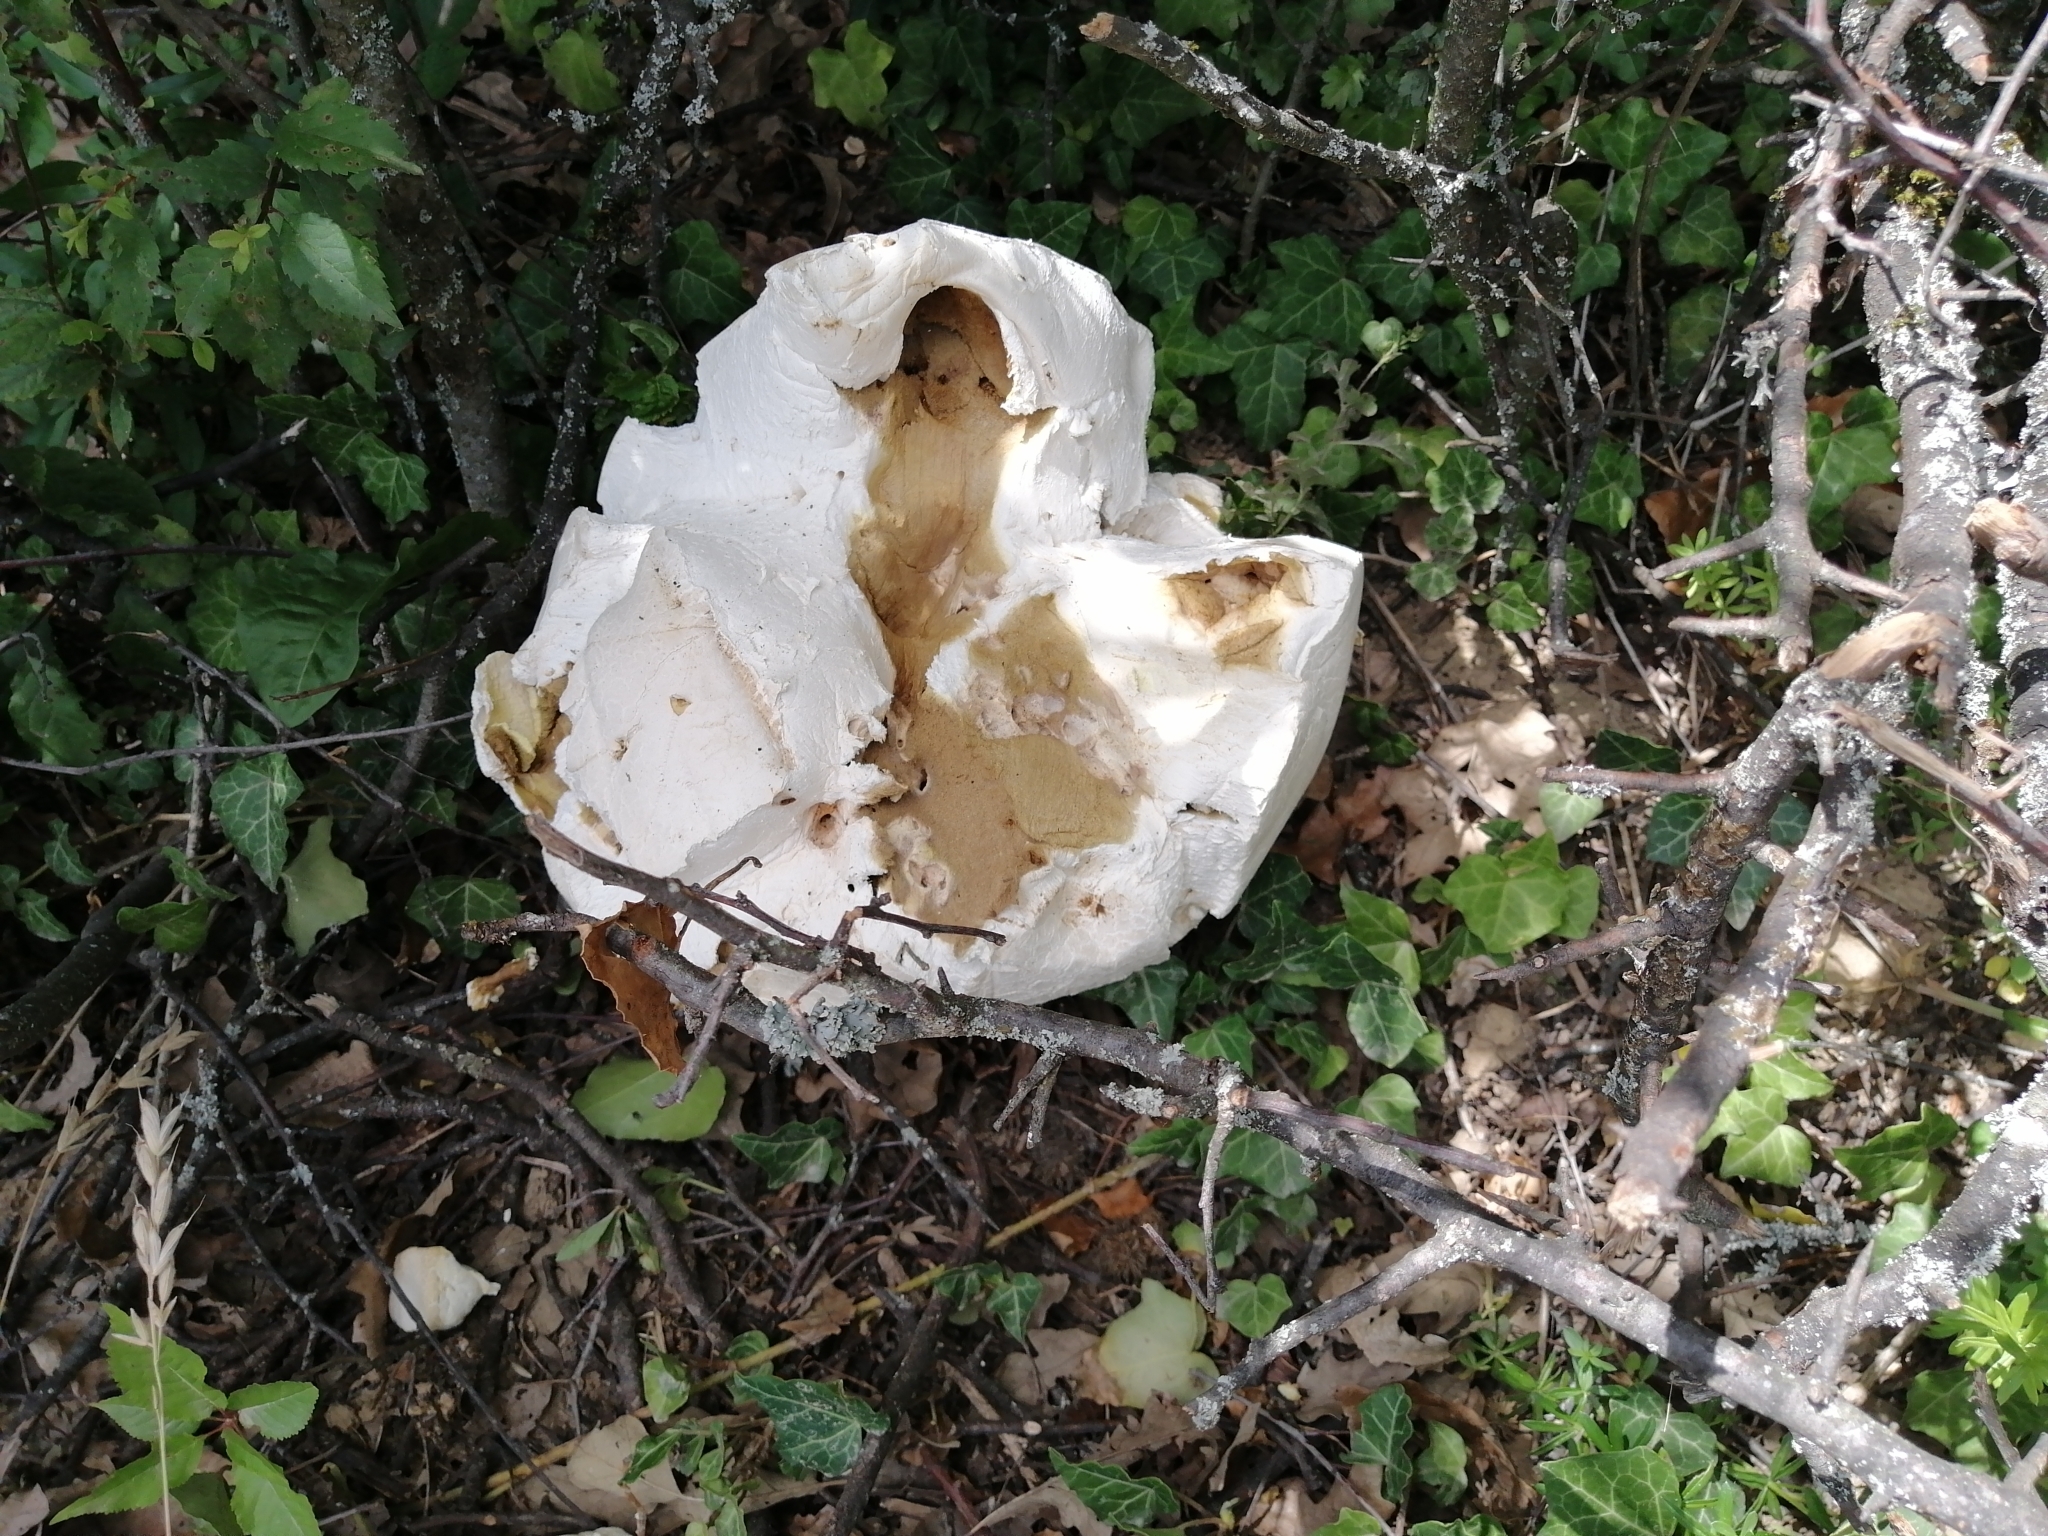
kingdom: Fungi
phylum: Basidiomycota
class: Agaricomycetes
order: Agaricales
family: Lycoperdaceae
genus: Calvatia
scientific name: Calvatia gigantea
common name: Giant puffball
